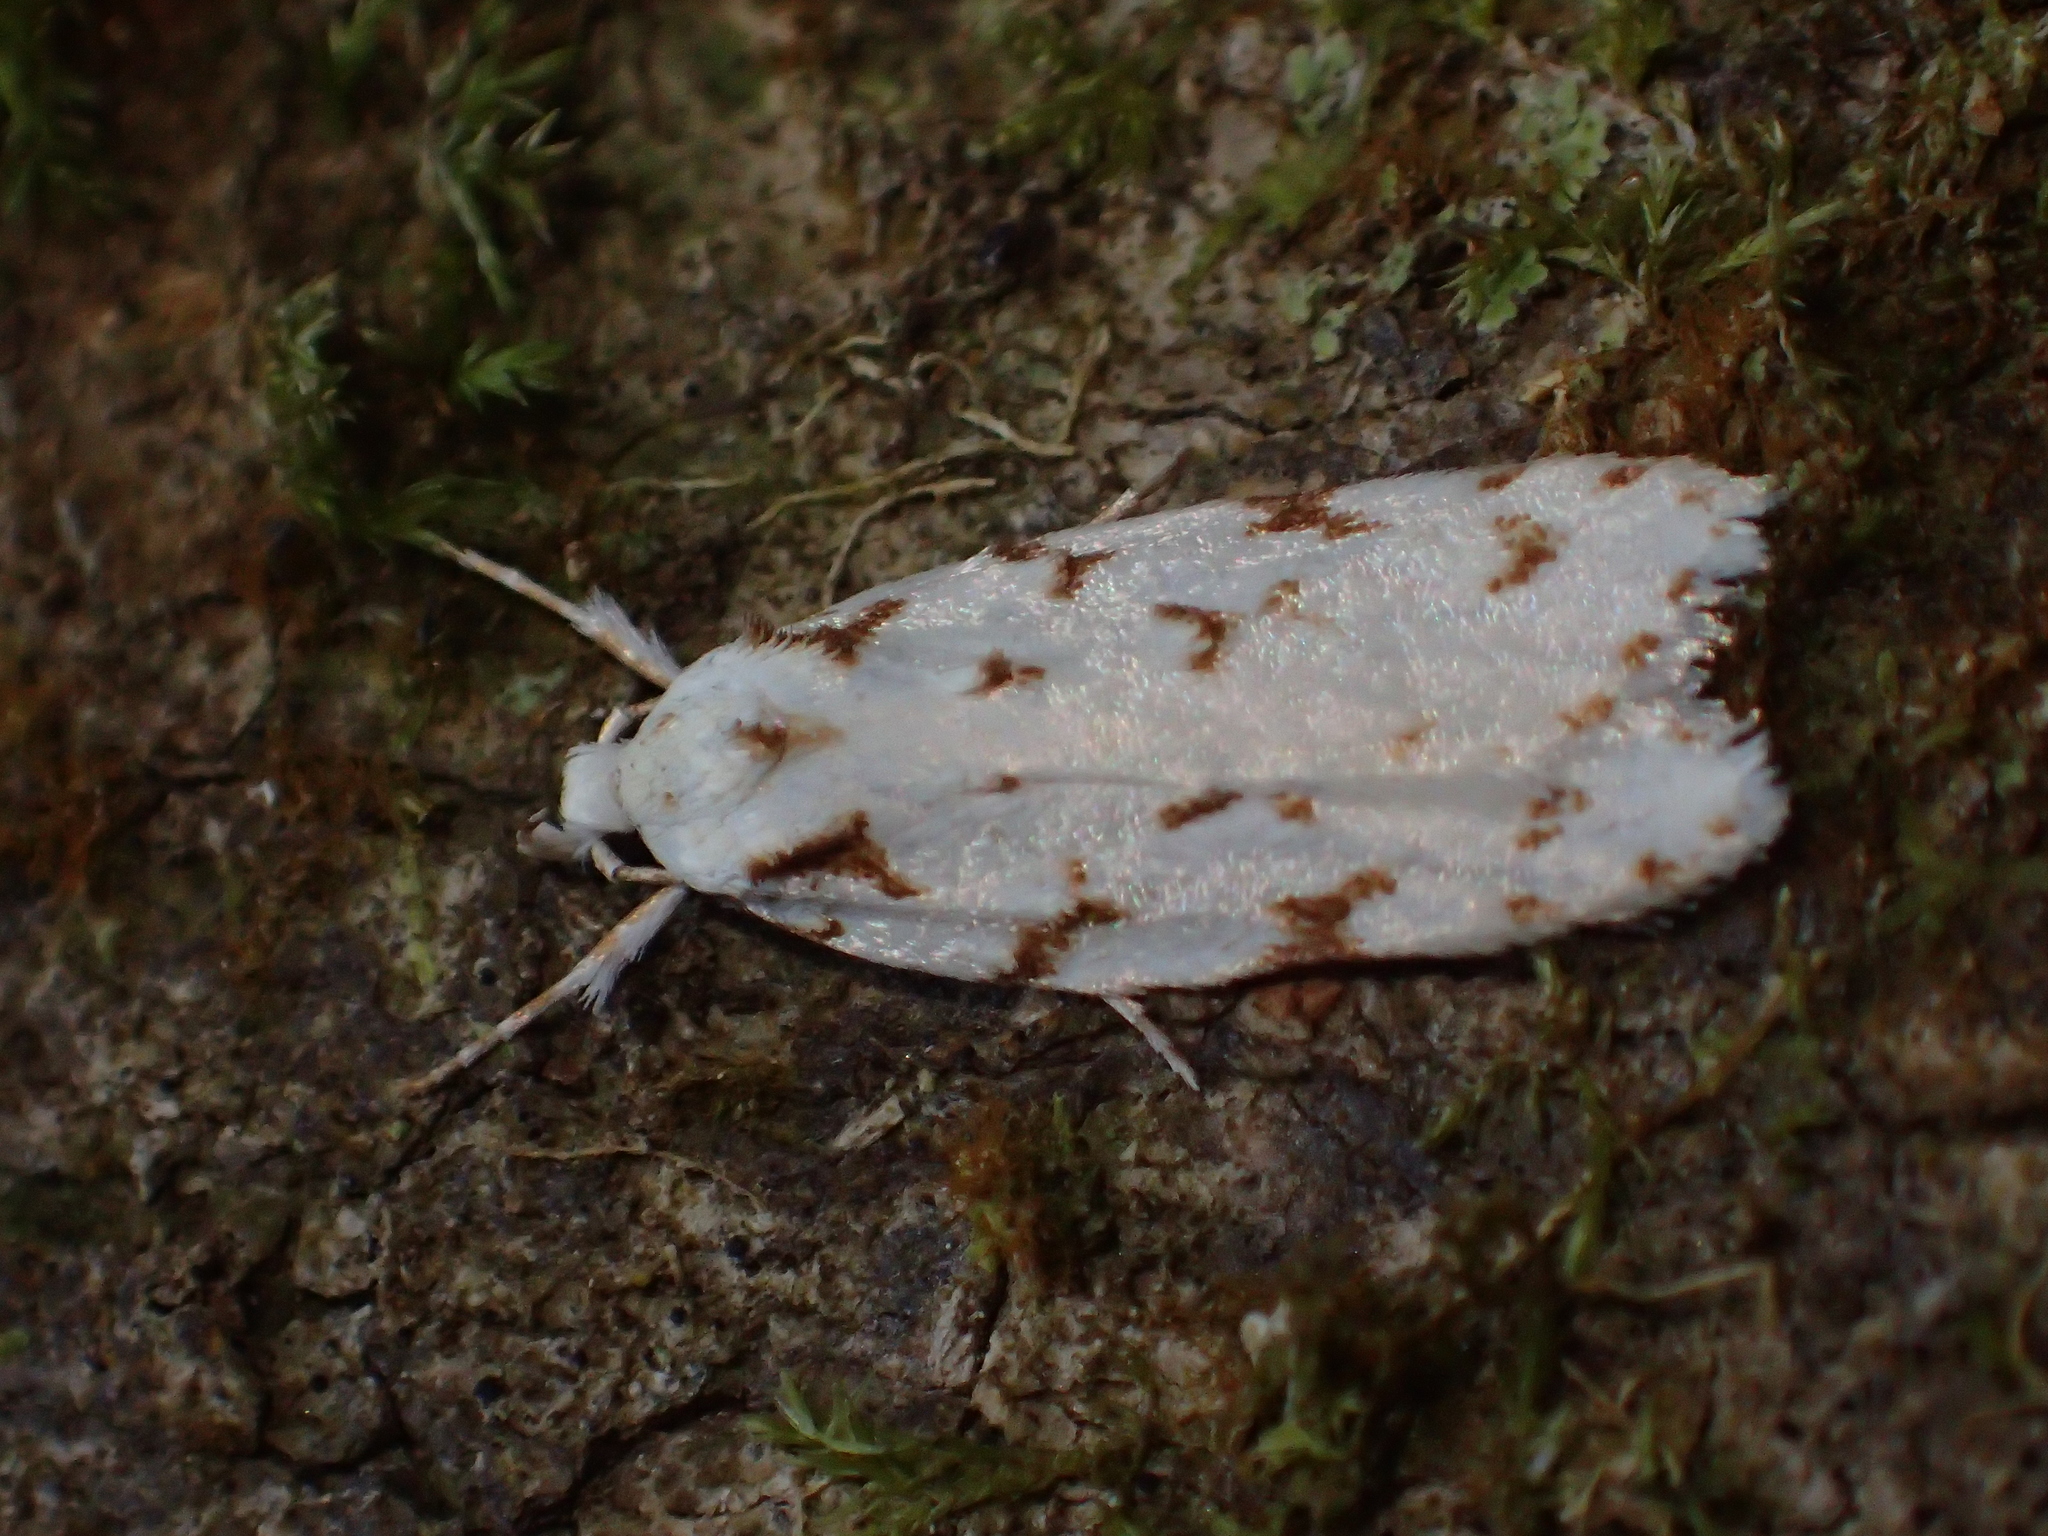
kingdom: Animalia
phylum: Arthropoda
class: Insecta
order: Lepidoptera
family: Oecophoridae
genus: Izatha
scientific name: Izatha hudsoni
